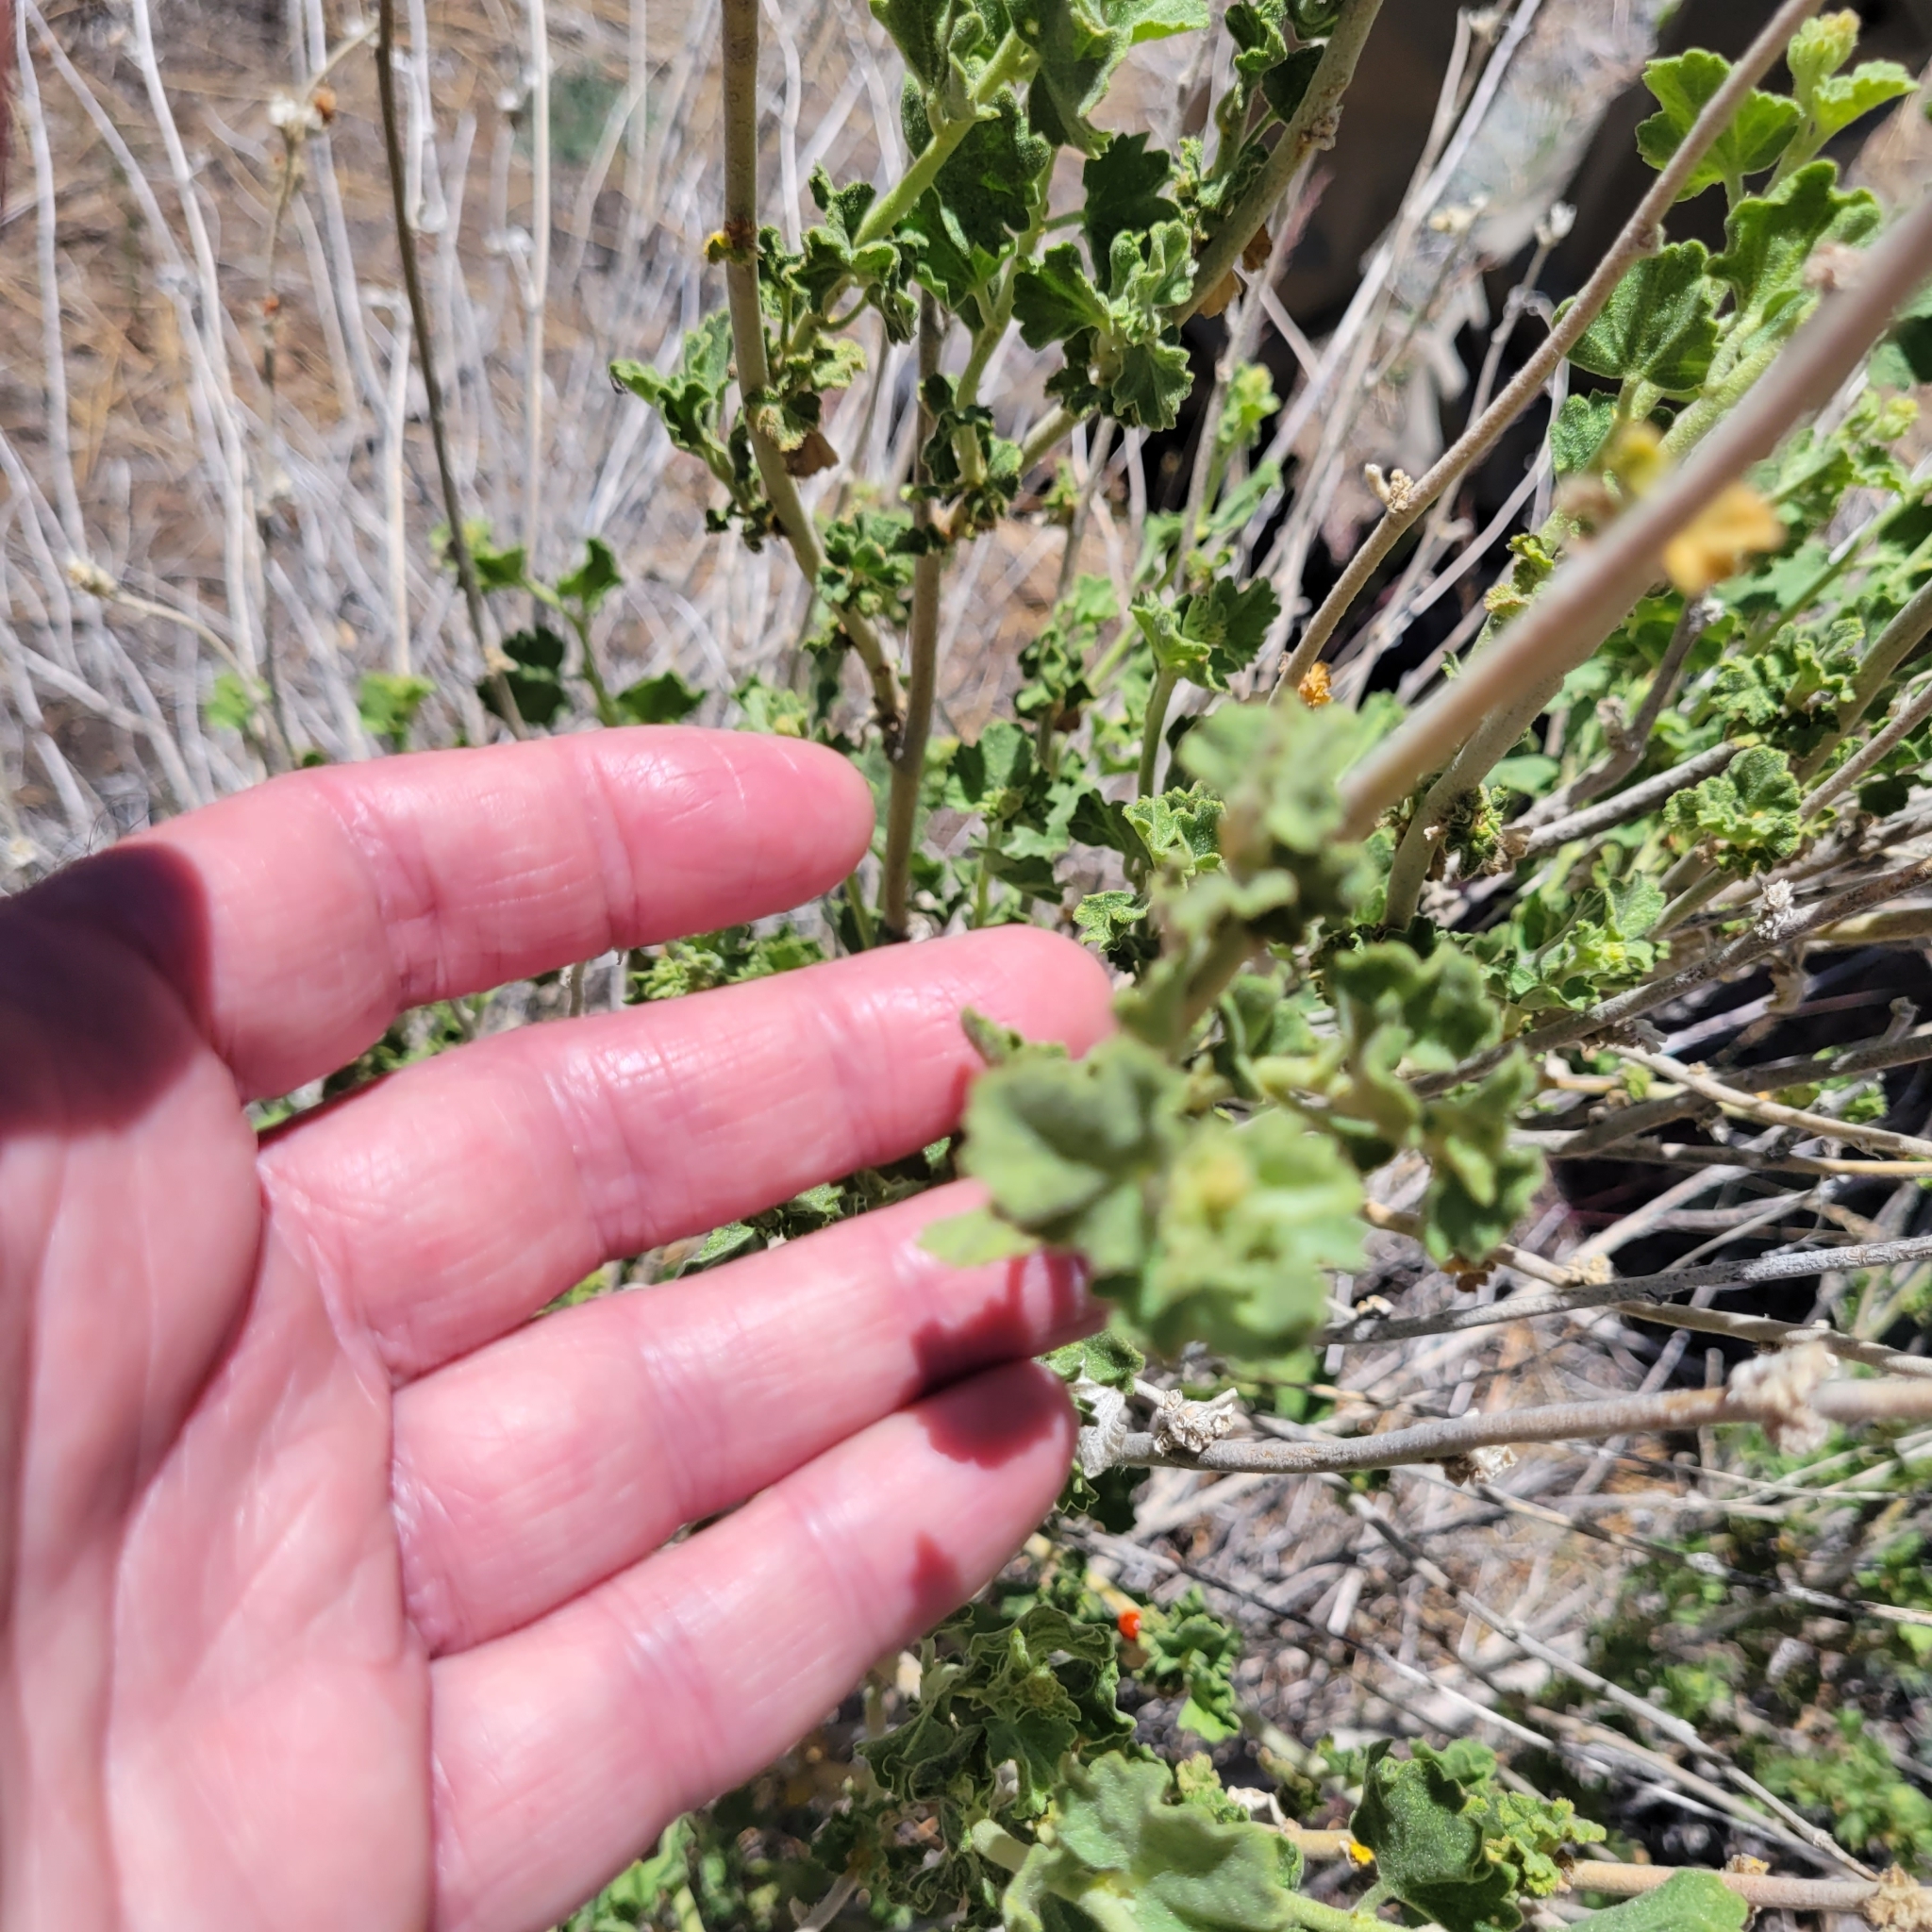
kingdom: Plantae
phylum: Tracheophyta
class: Magnoliopsida
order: Malvales
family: Malvaceae
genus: Malacothamnus
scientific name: Malacothamnus fremontii
